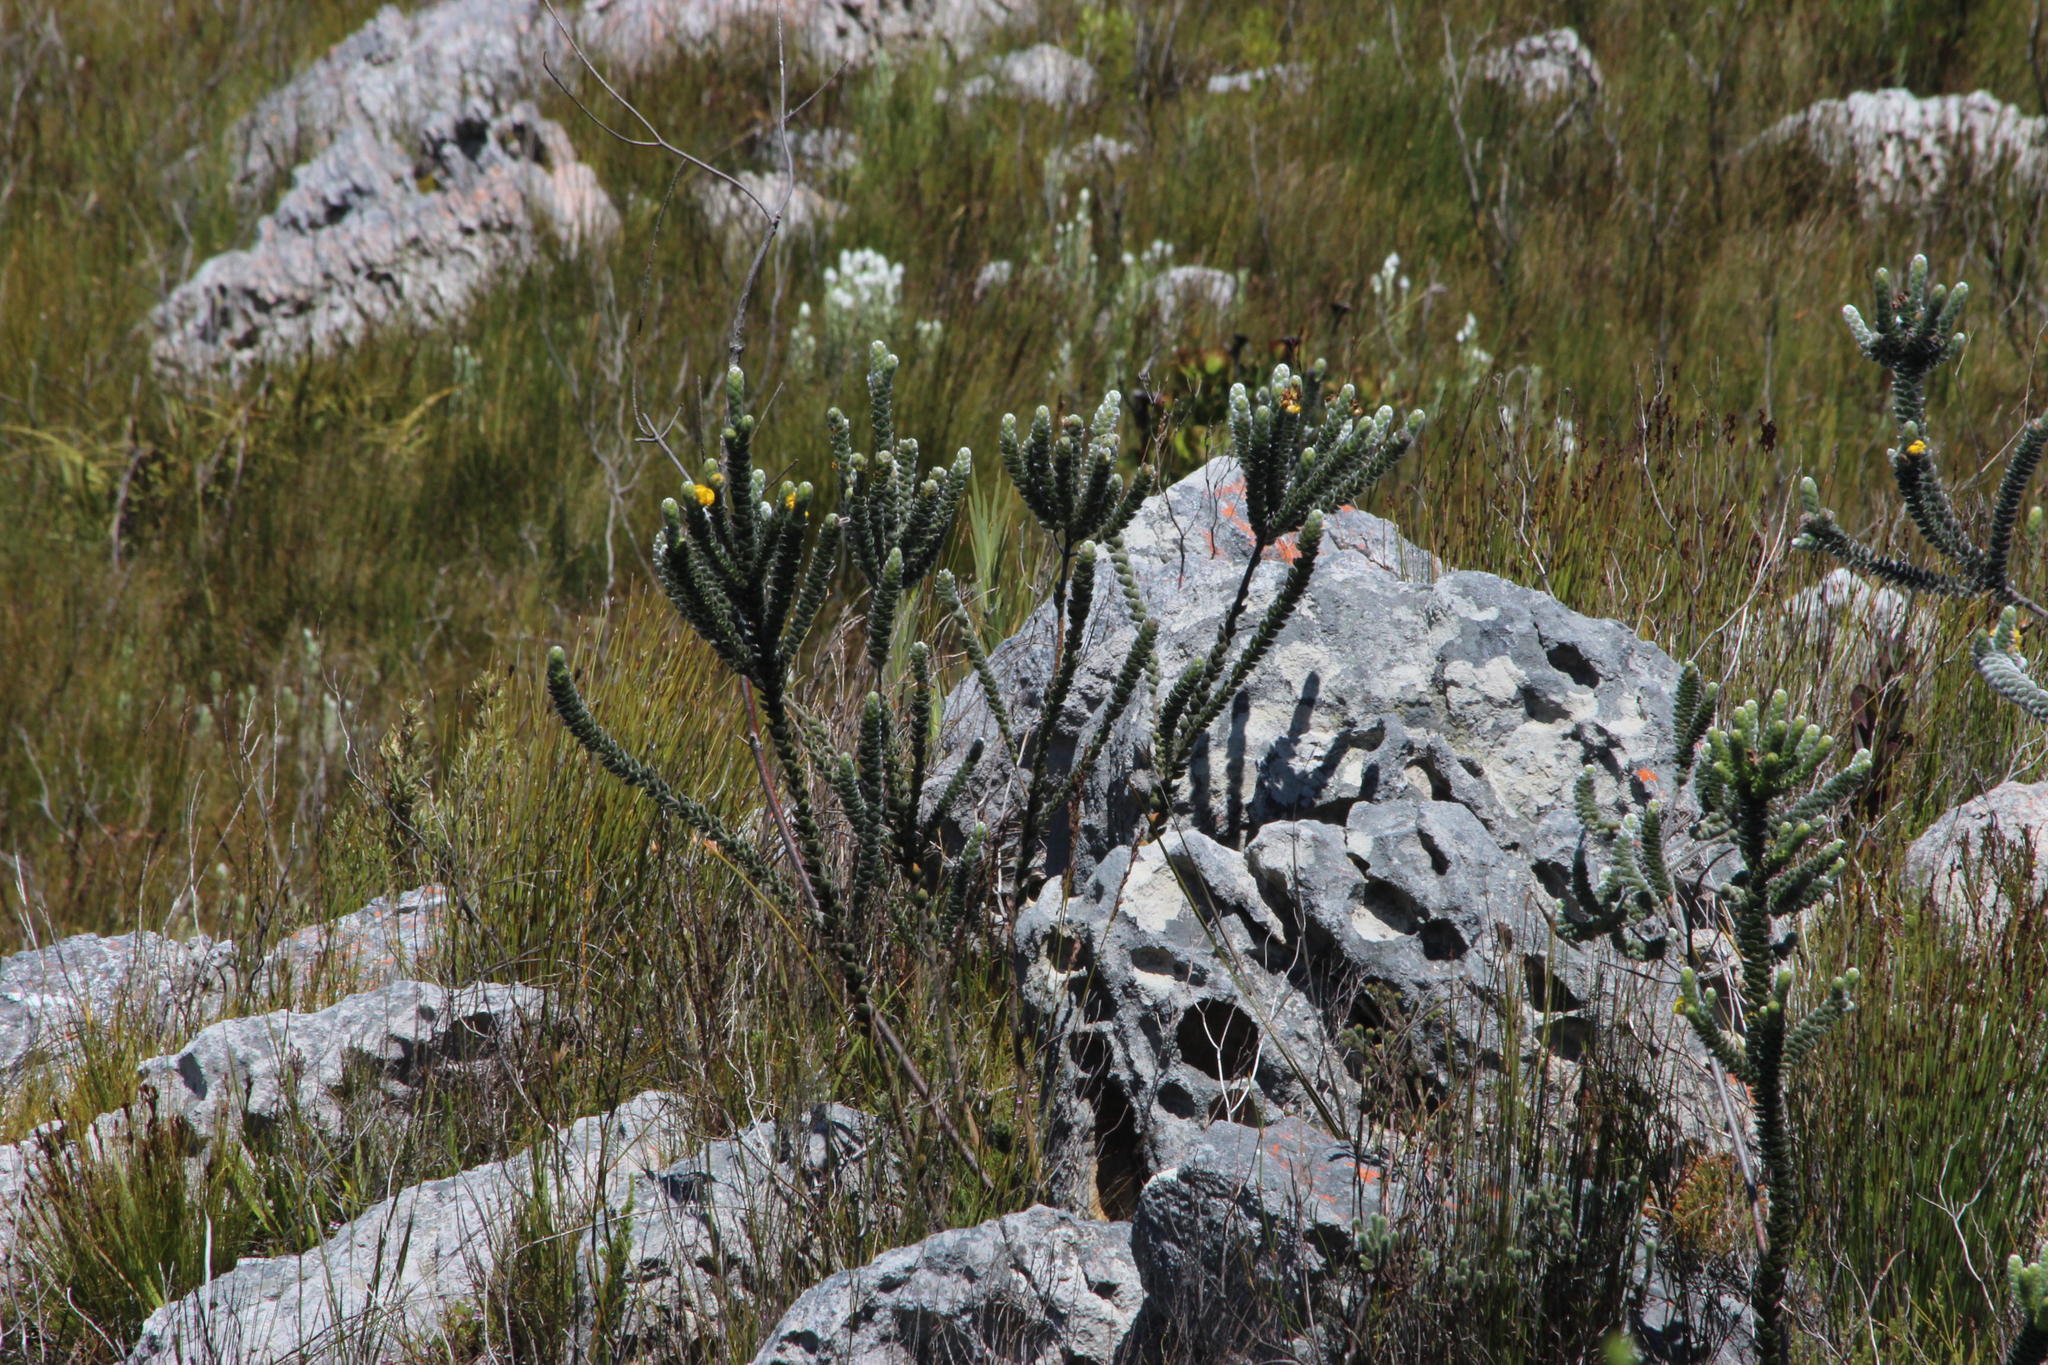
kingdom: Plantae
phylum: Tracheophyta
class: Magnoliopsida
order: Fabales
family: Fabaceae
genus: Liparia
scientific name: Liparia vestita
